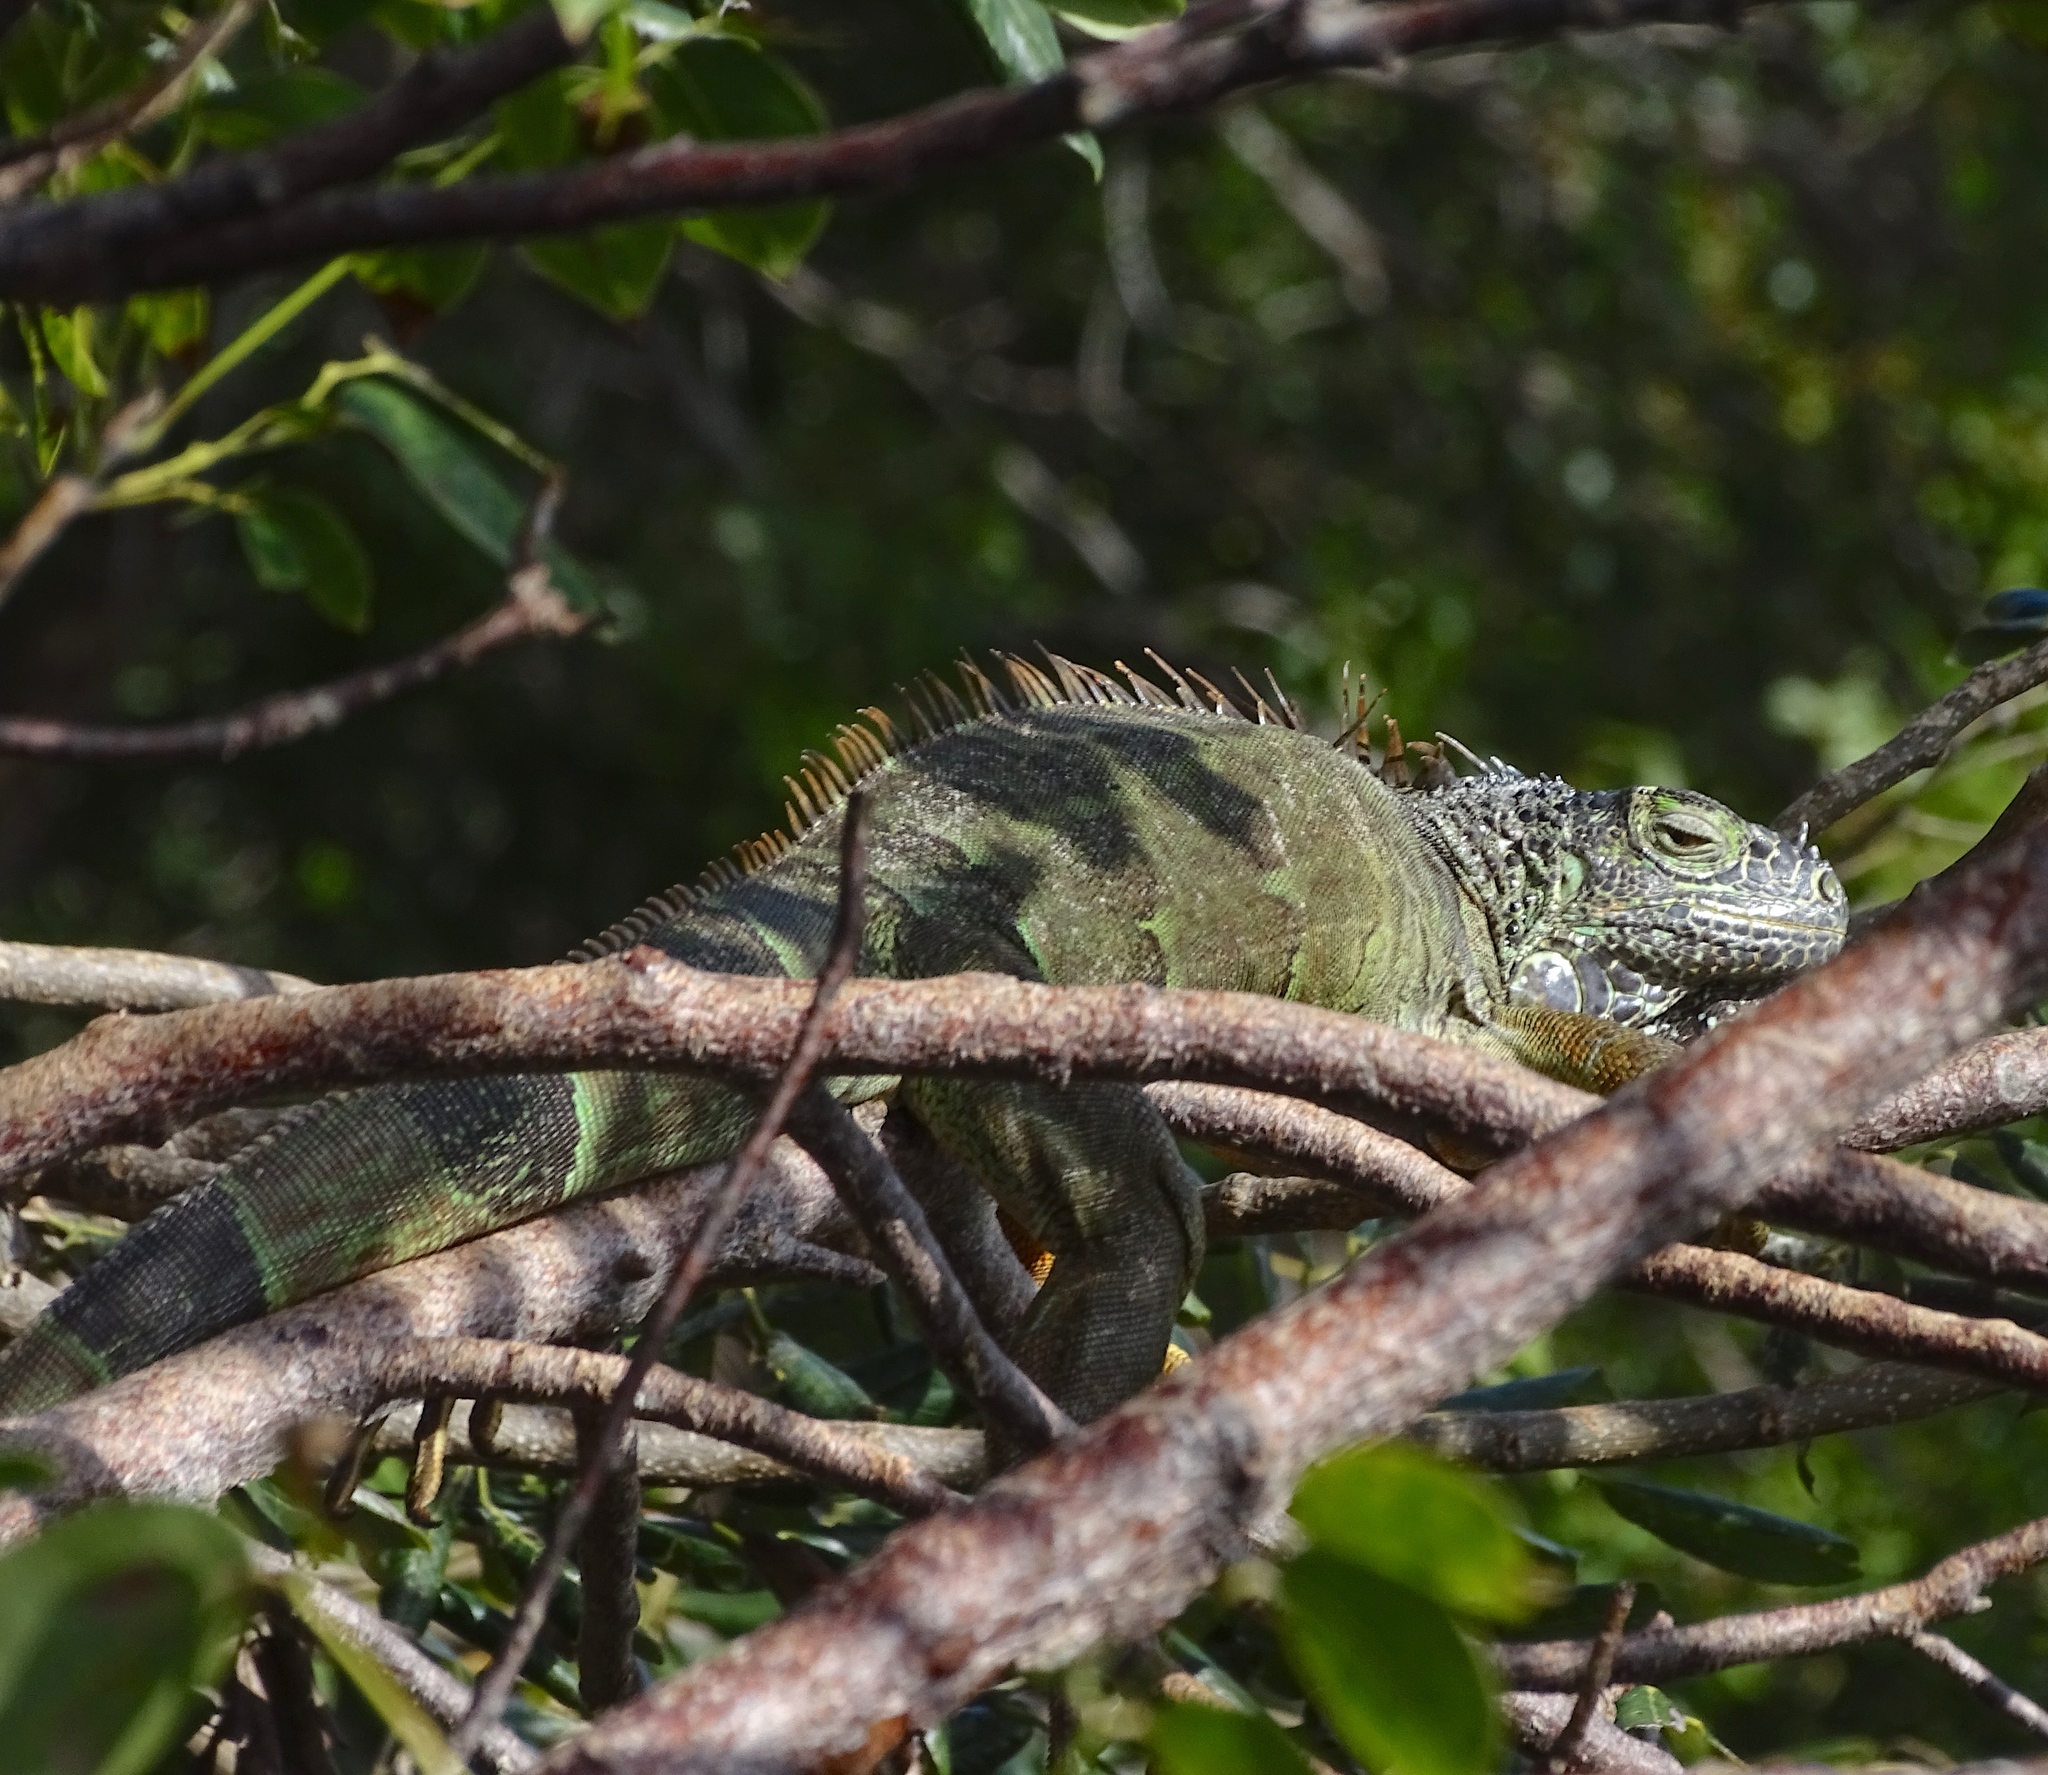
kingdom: Animalia
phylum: Chordata
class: Squamata
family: Iguanidae
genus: Iguana
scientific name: Iguana iguana
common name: Green iguana
